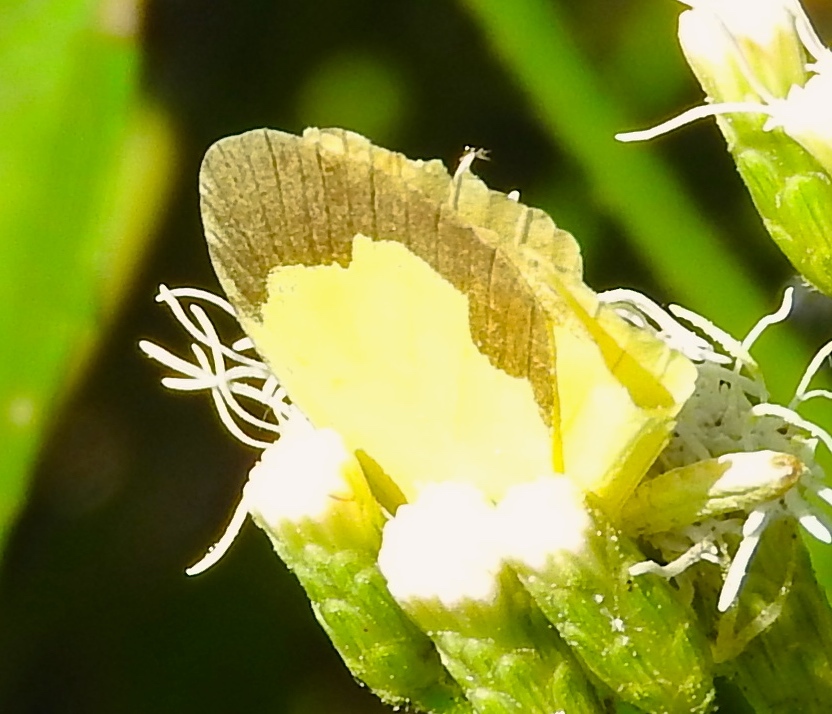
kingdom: Animalia
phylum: Arthropoda
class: Insecta
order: Lepidoptera
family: Pieridae
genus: Abaeis
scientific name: Abaeis salome
